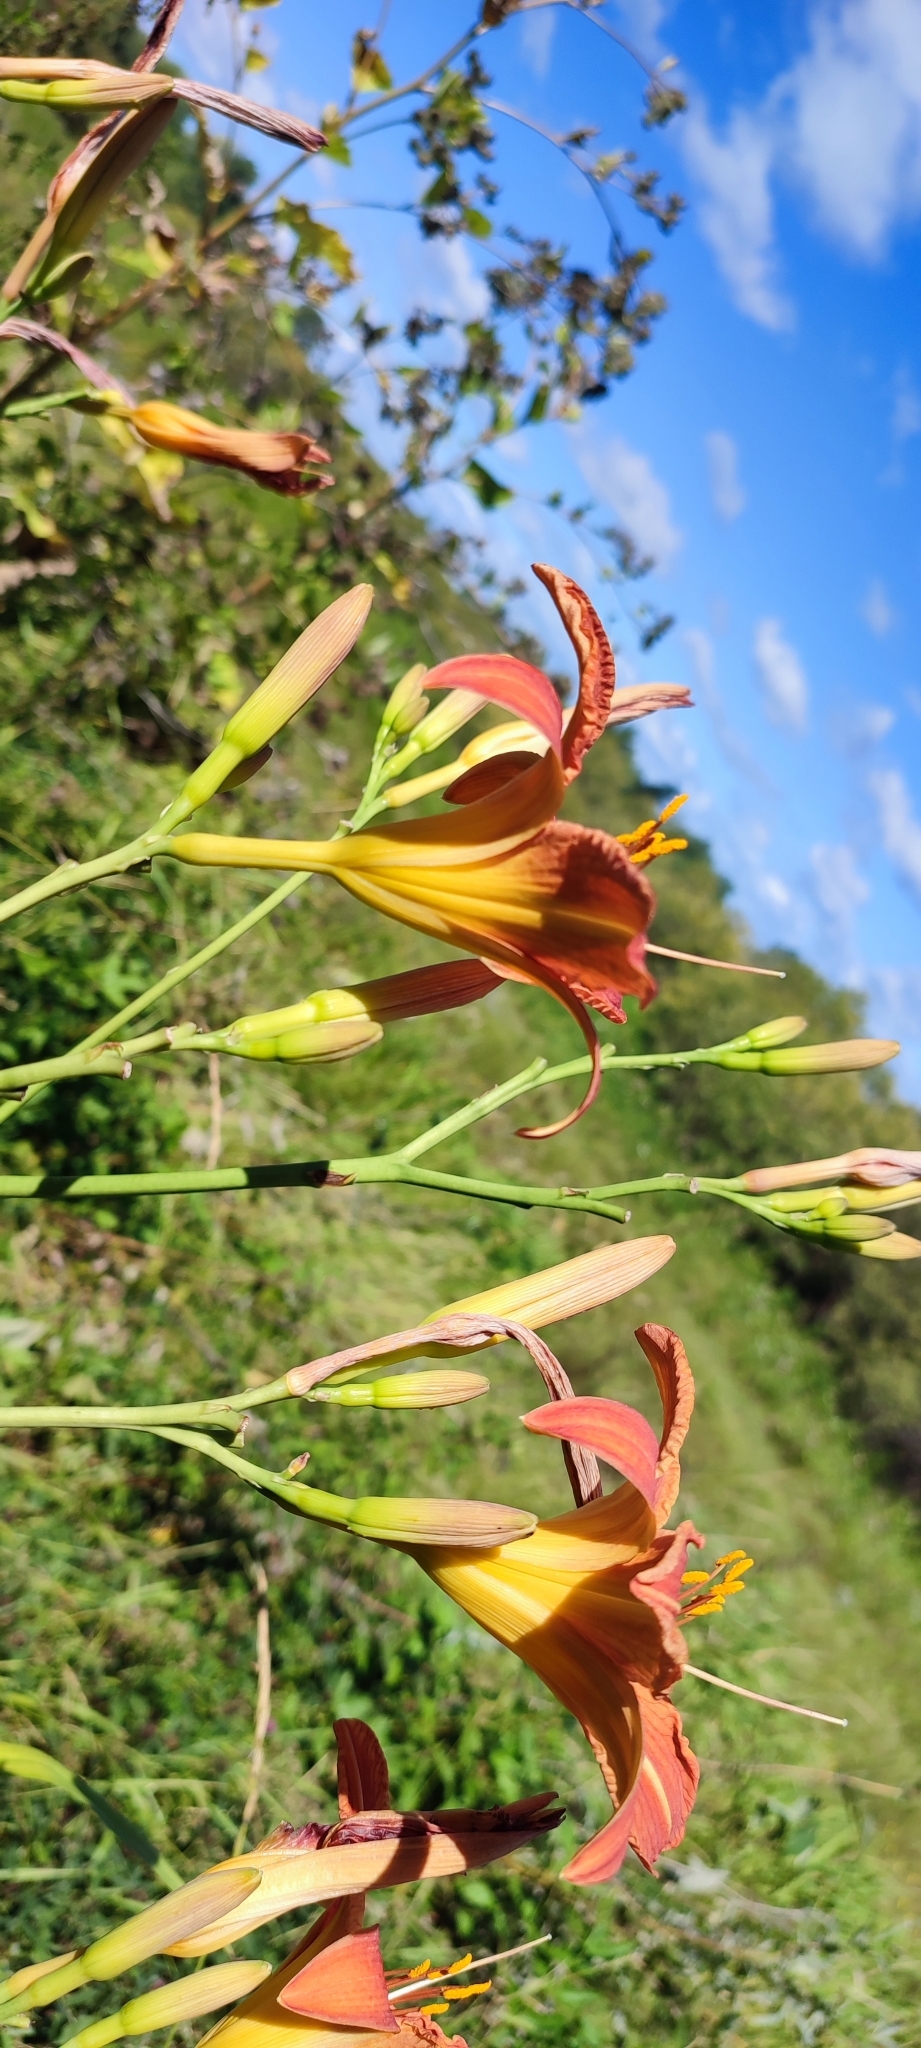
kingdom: Plantae
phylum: Tracheophyta
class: Liliopsida
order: Asparagales
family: Asphodelaceae
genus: Hemerocallis
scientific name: Hemerocallis fulva
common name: Orange day-lily
